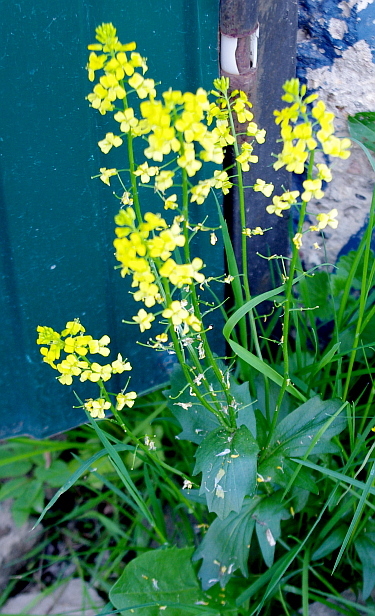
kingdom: Plantae
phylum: Tracheophyta
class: Magnoliopsida
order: Brassicales
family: Brassicaceae
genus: Barbarea
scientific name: Barbarea vulgaris
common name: Cressy-greens
